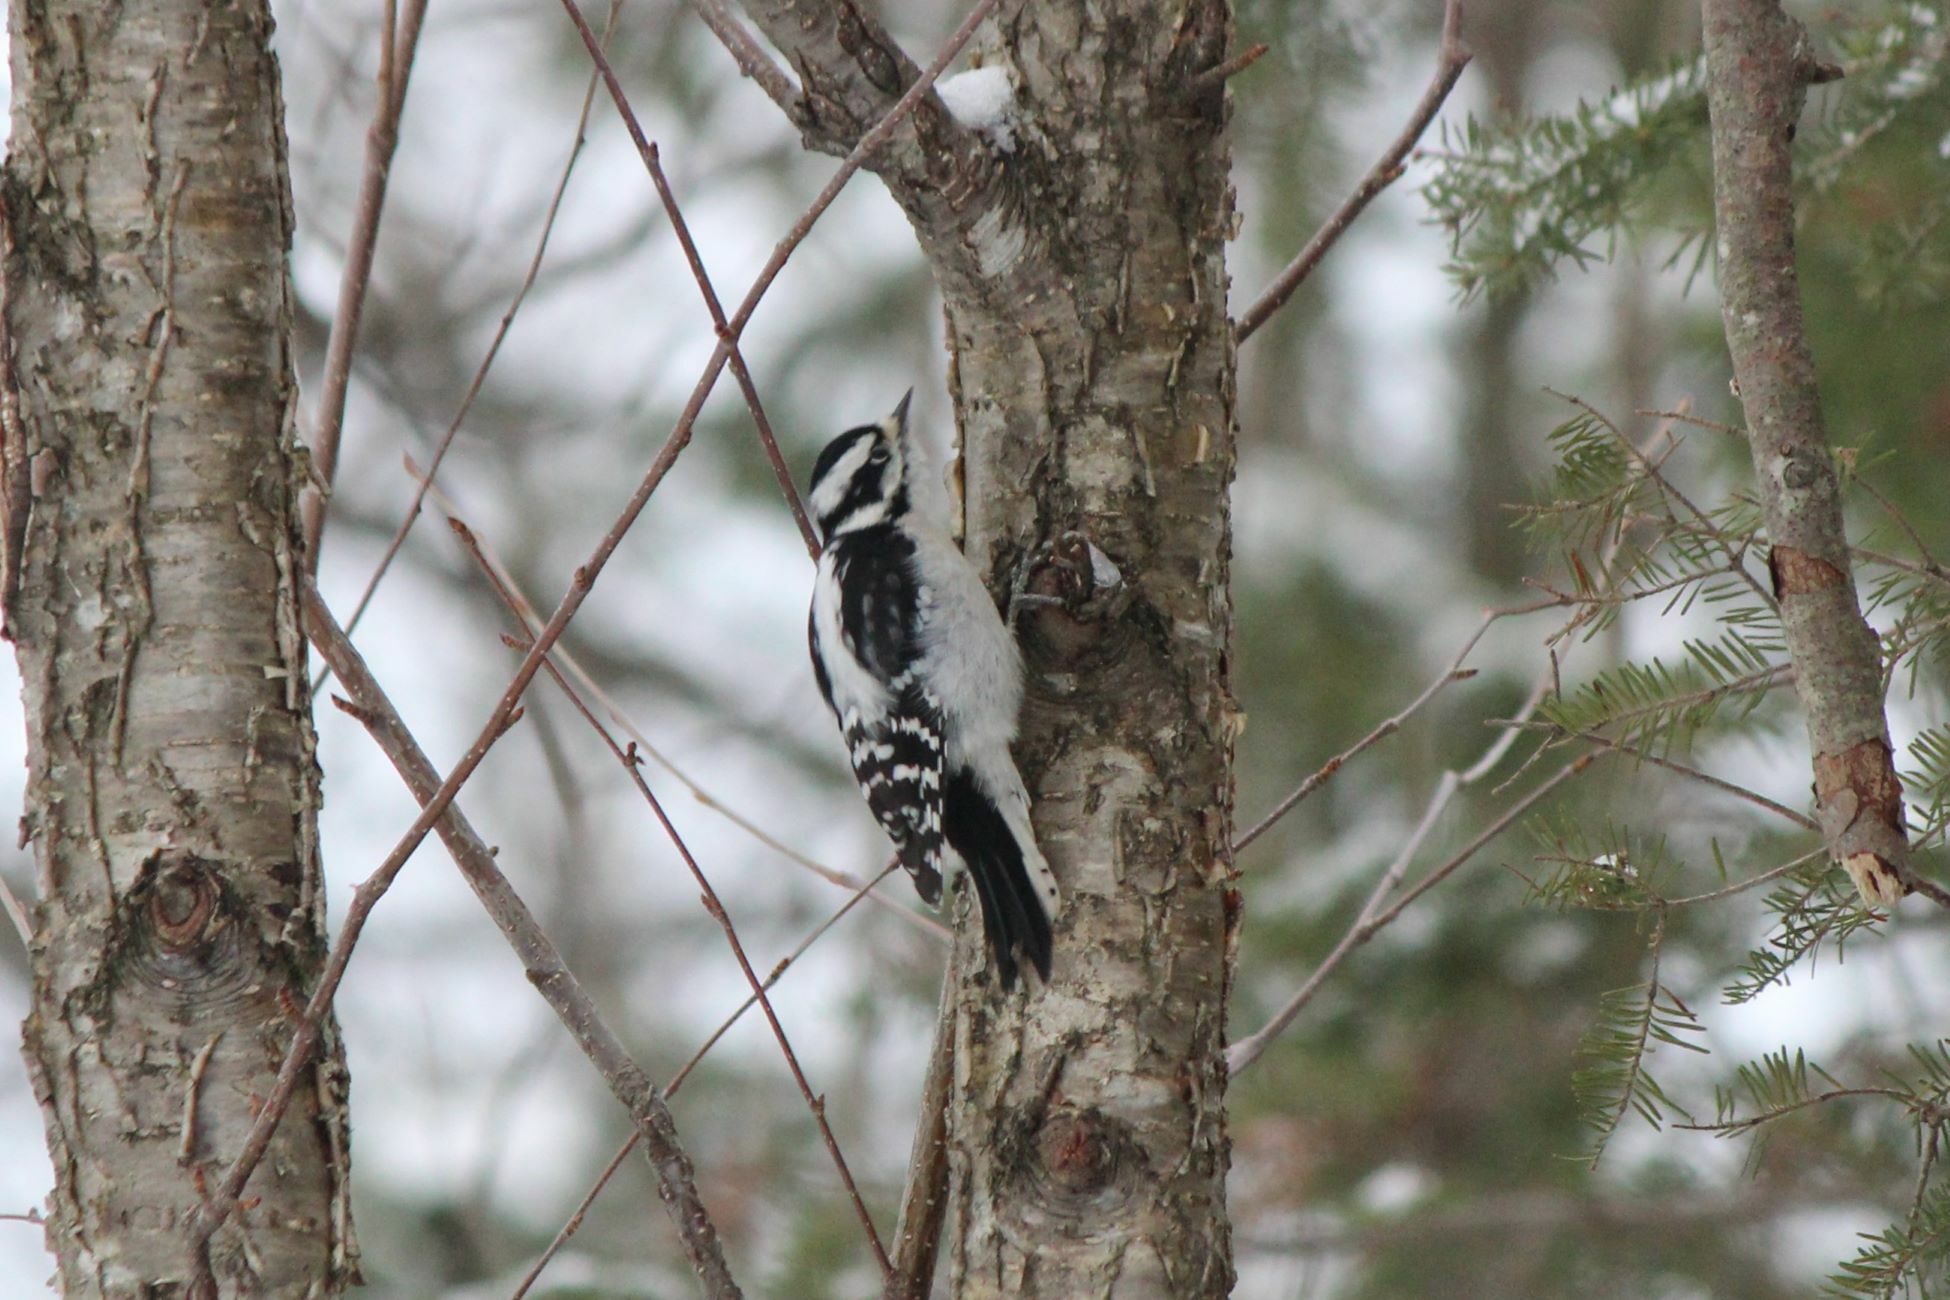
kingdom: Animalia
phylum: Chordata
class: Aves
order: Piciformes
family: Picidae
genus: Dryobates
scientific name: Dryobates pubescens
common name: Downy woodpecker
